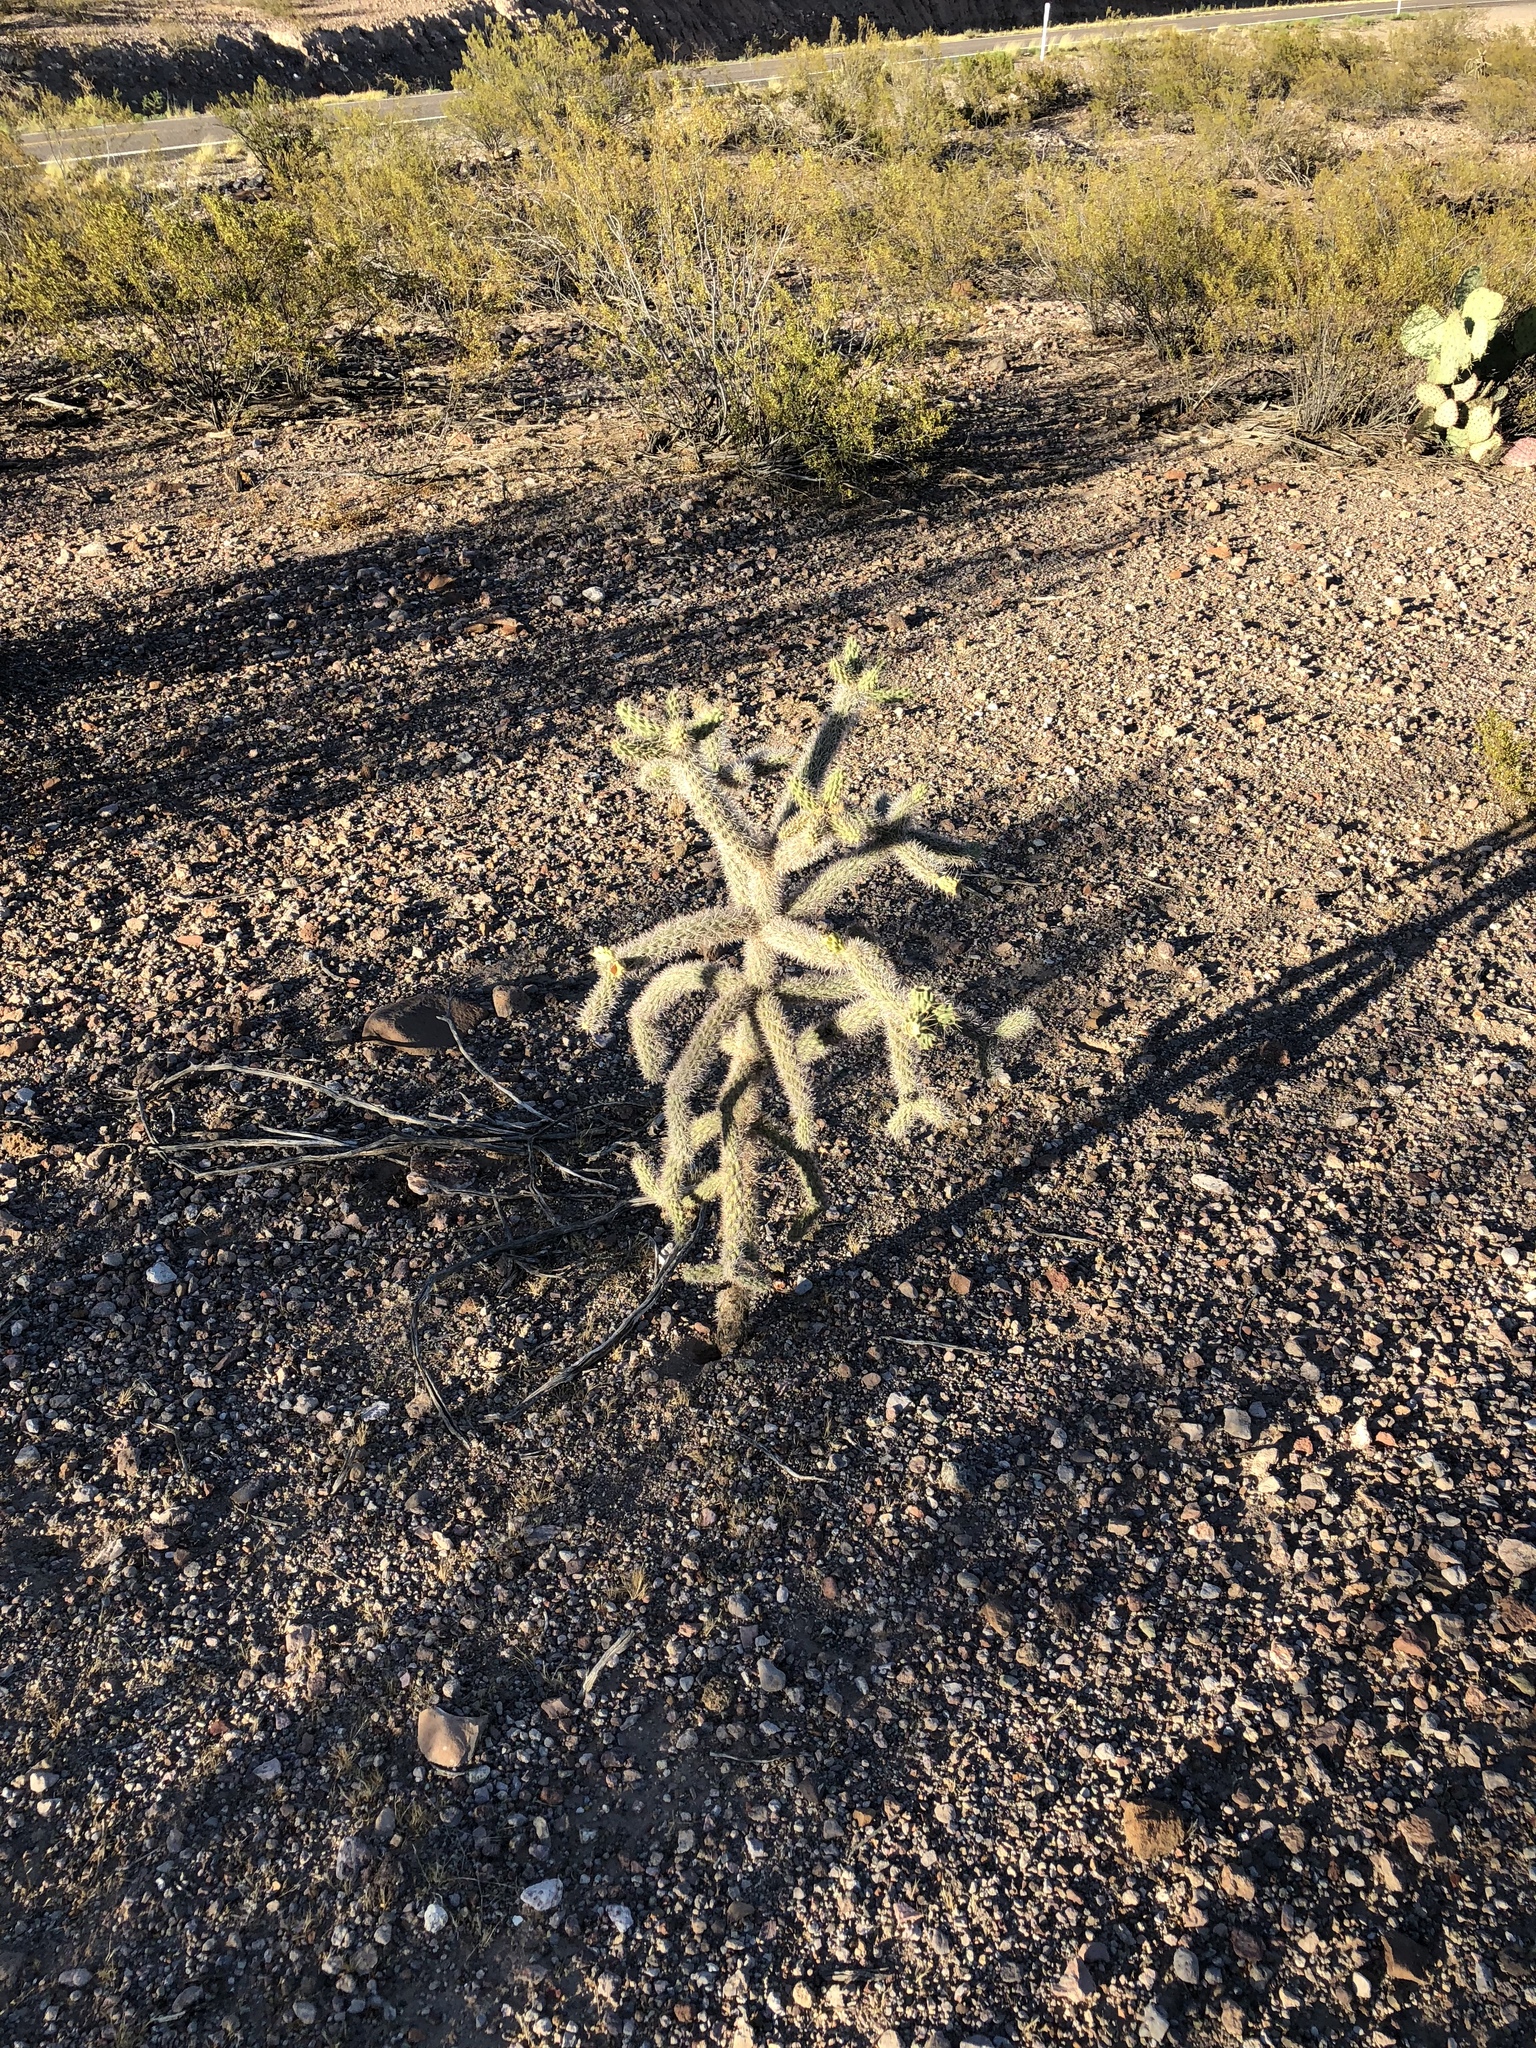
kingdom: Plantae
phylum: Tracheophyta
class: Magnoliopsida
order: Caryophyllales
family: Cactaceae
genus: Cylindropuntia
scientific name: Cylindropuntia imbricata
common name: Candelabrum cactus
